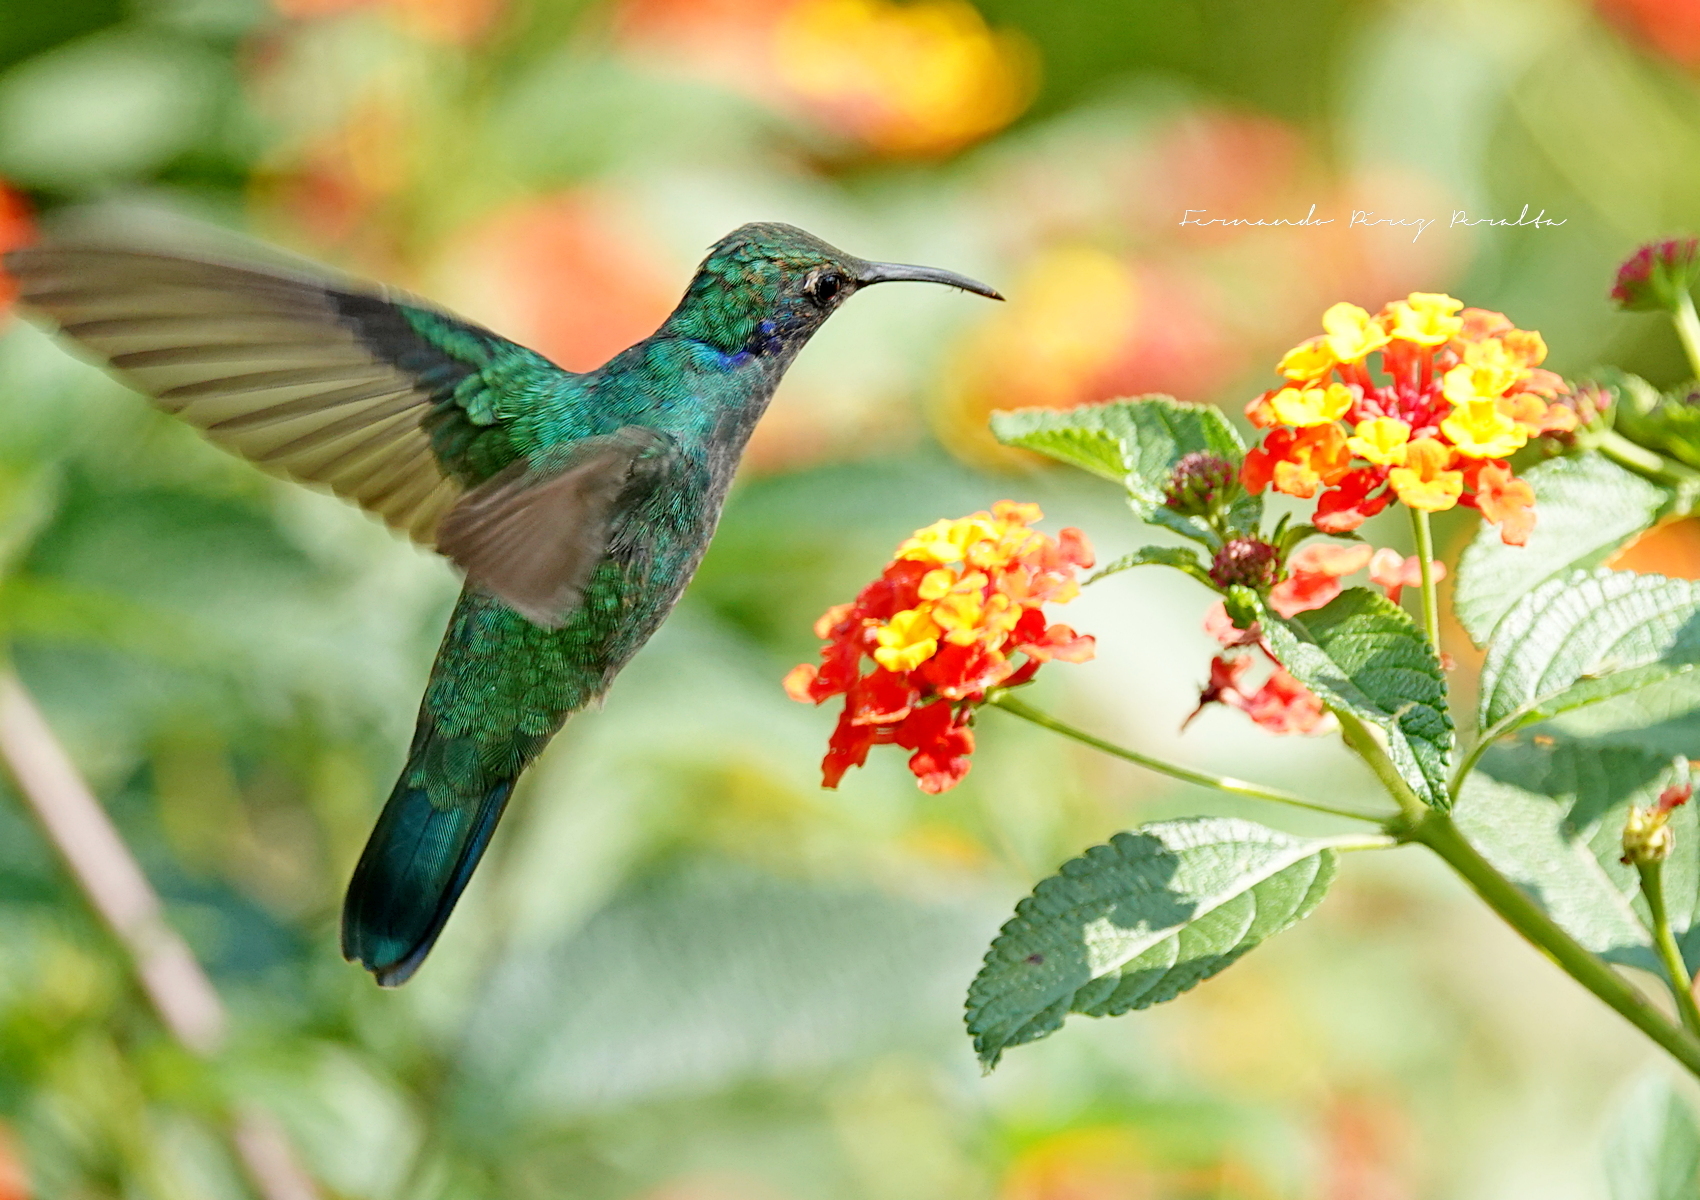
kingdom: Animalia
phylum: Chordata
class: Aves
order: Apodiformes
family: Trochilidae
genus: Colibri
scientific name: Colibri thalassinus
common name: Green violetear
